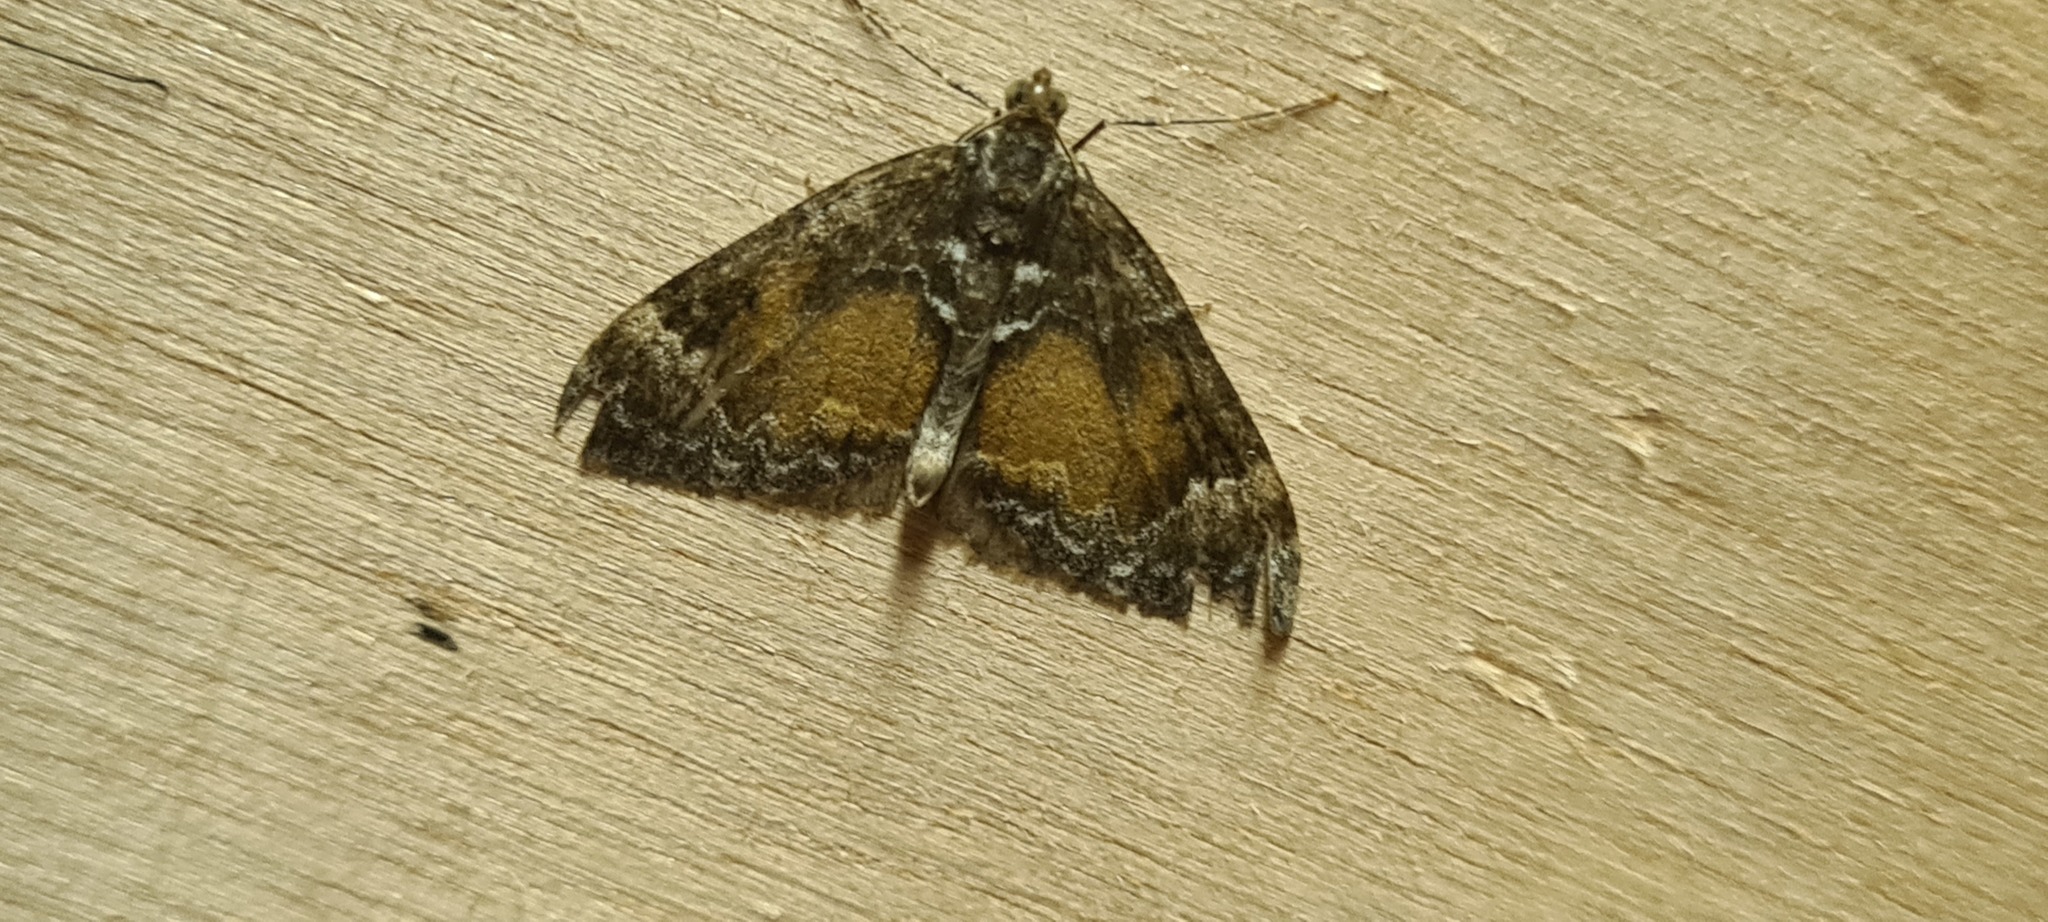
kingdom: Animalia
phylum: Arthropoda
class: Insecta
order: Lepidoptera
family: Geometridae
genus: Dysstroma
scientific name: Dysstroma truncata
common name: Common marbled carpet
